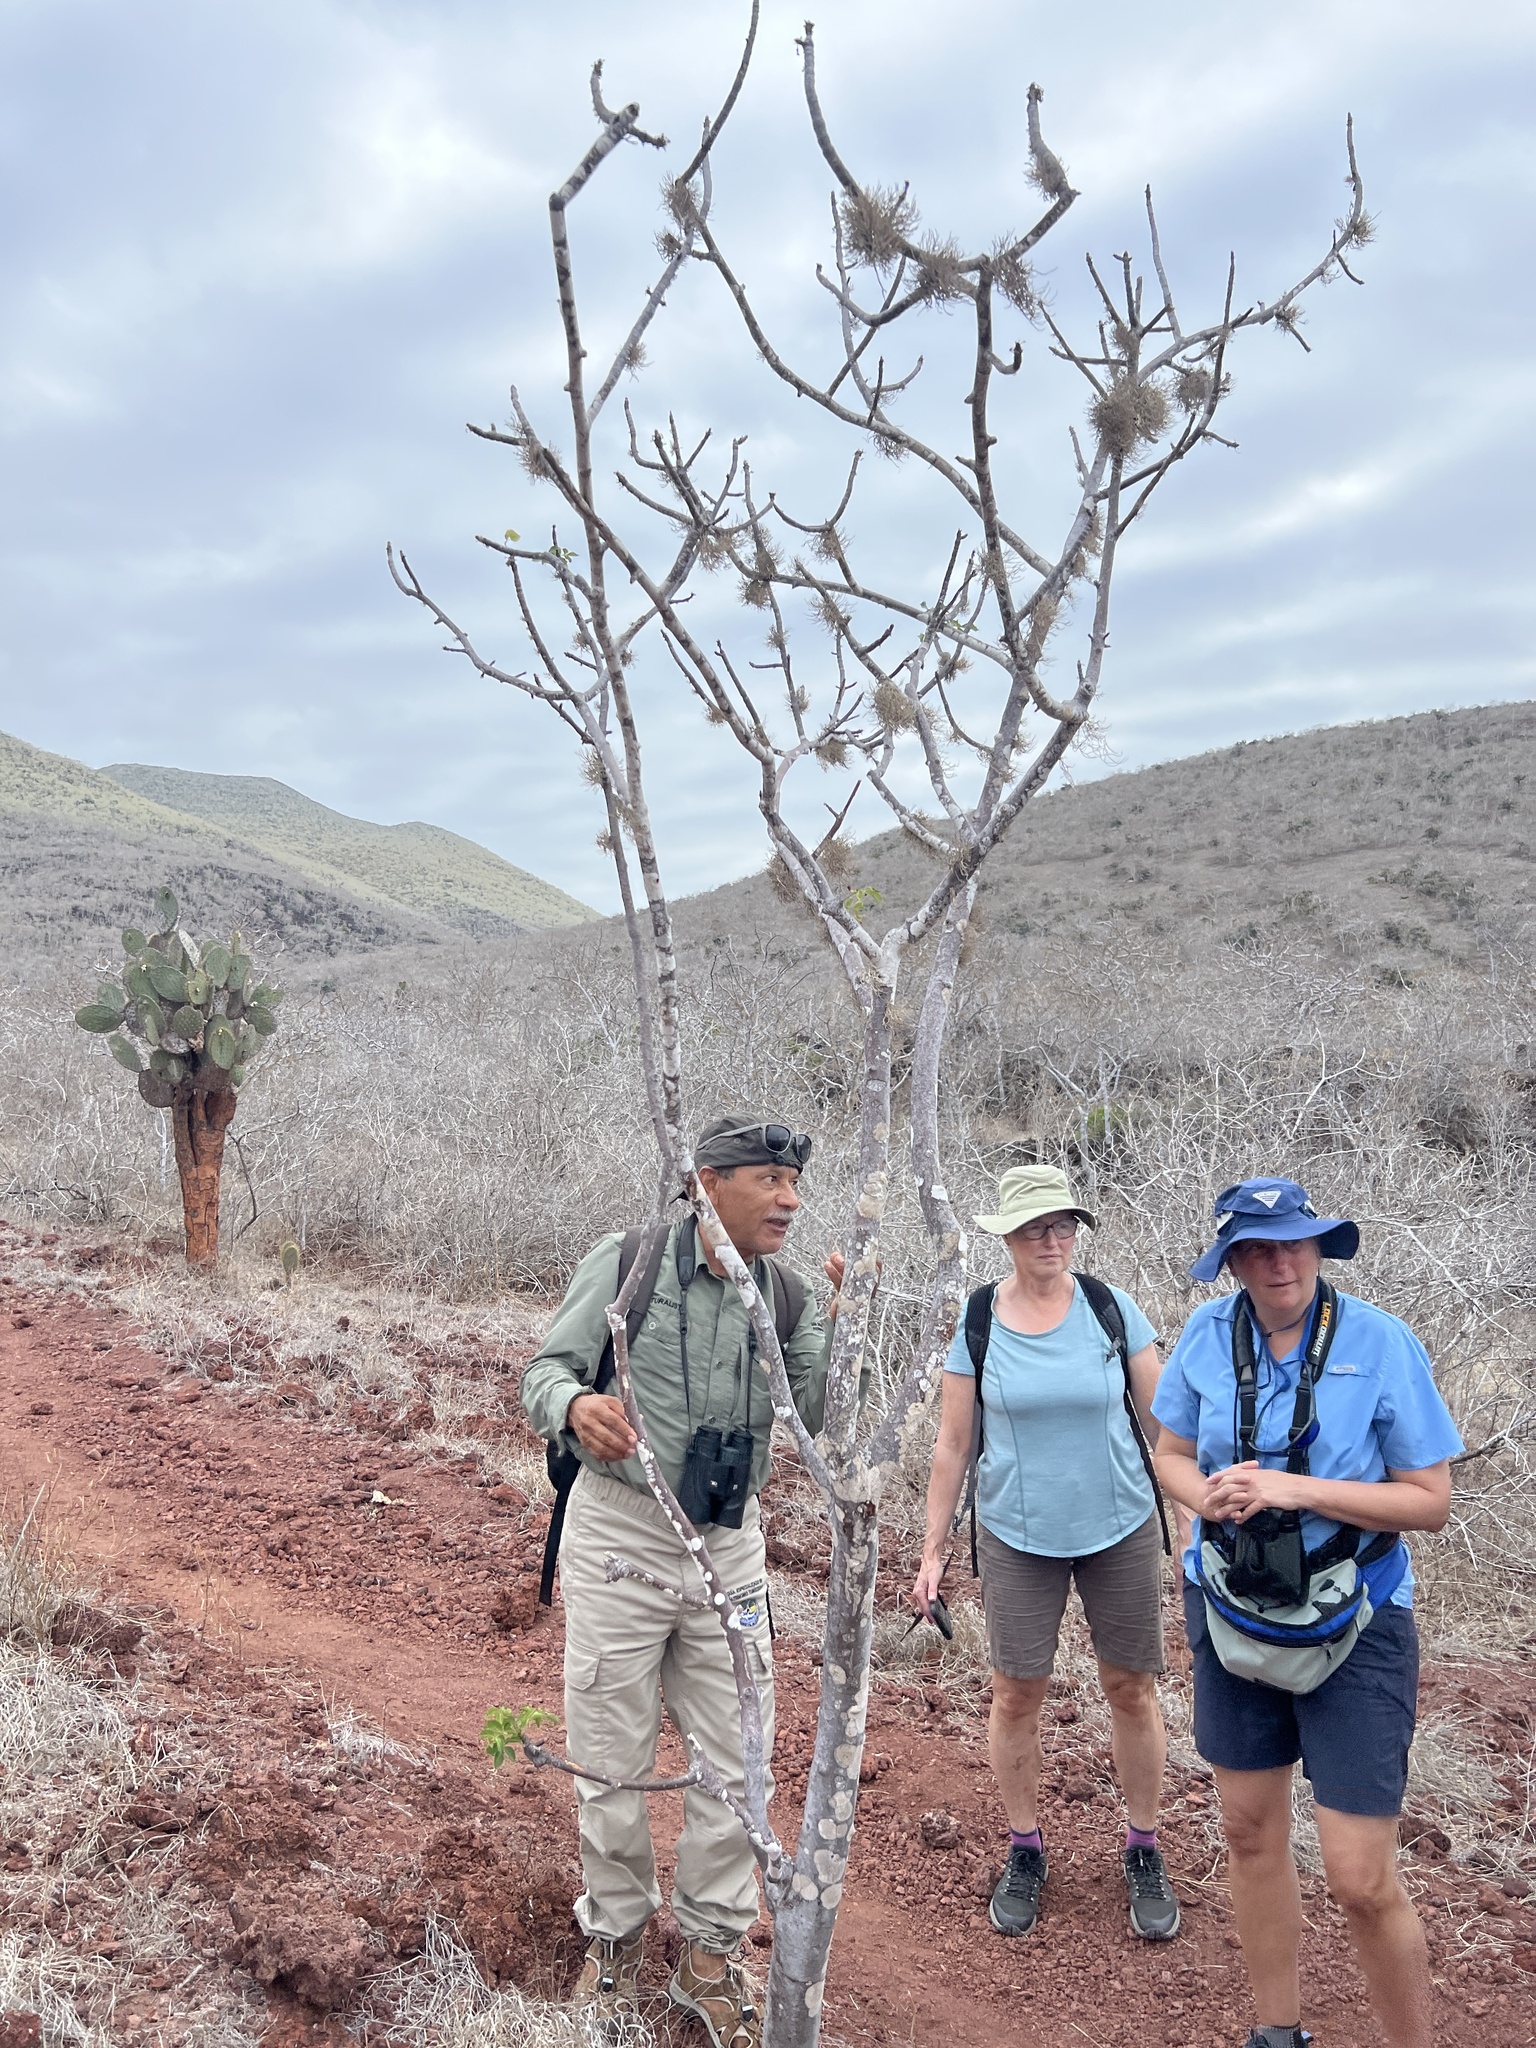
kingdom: Plantae
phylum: Tracheophyta
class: Magnoliopsida
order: Sapindales
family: Burseraceae
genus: Bursera
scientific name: Bursera graveolens
